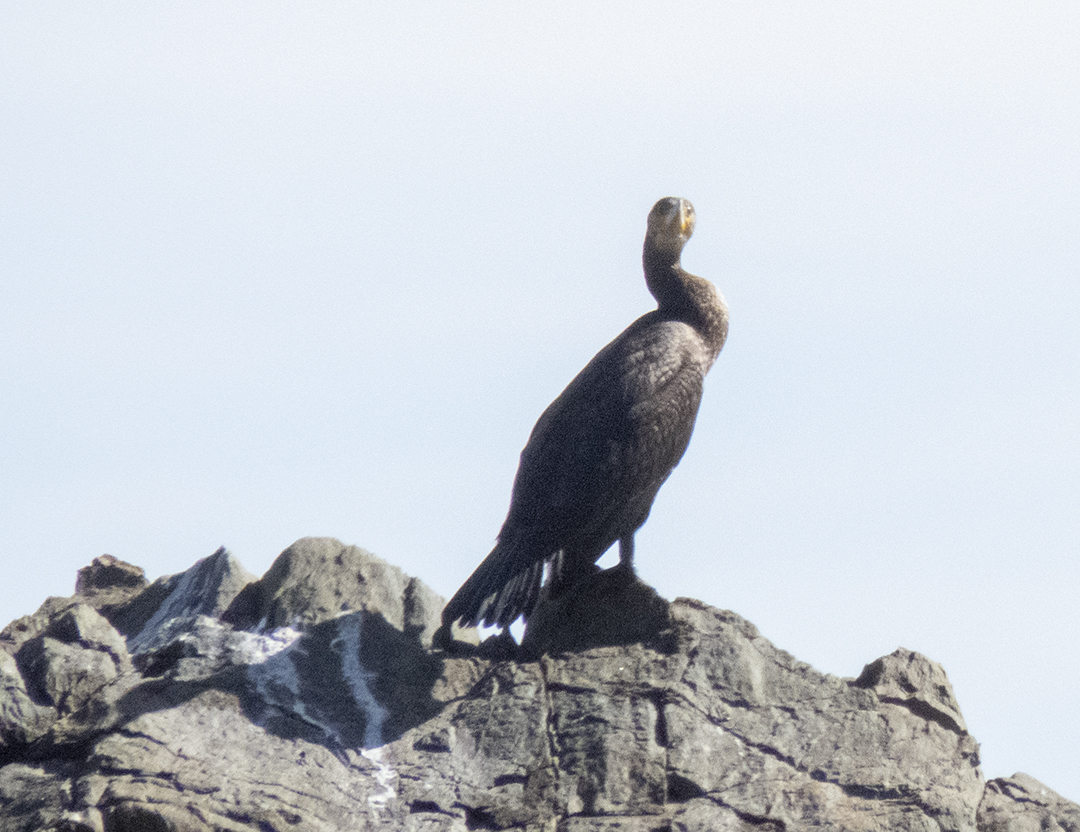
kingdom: Animalia
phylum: Chordata
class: Aves
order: Suliformes
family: Phalacrocoracidae
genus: Phalacrocorax
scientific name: Phalacrocorax carbo
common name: Great cormorant
